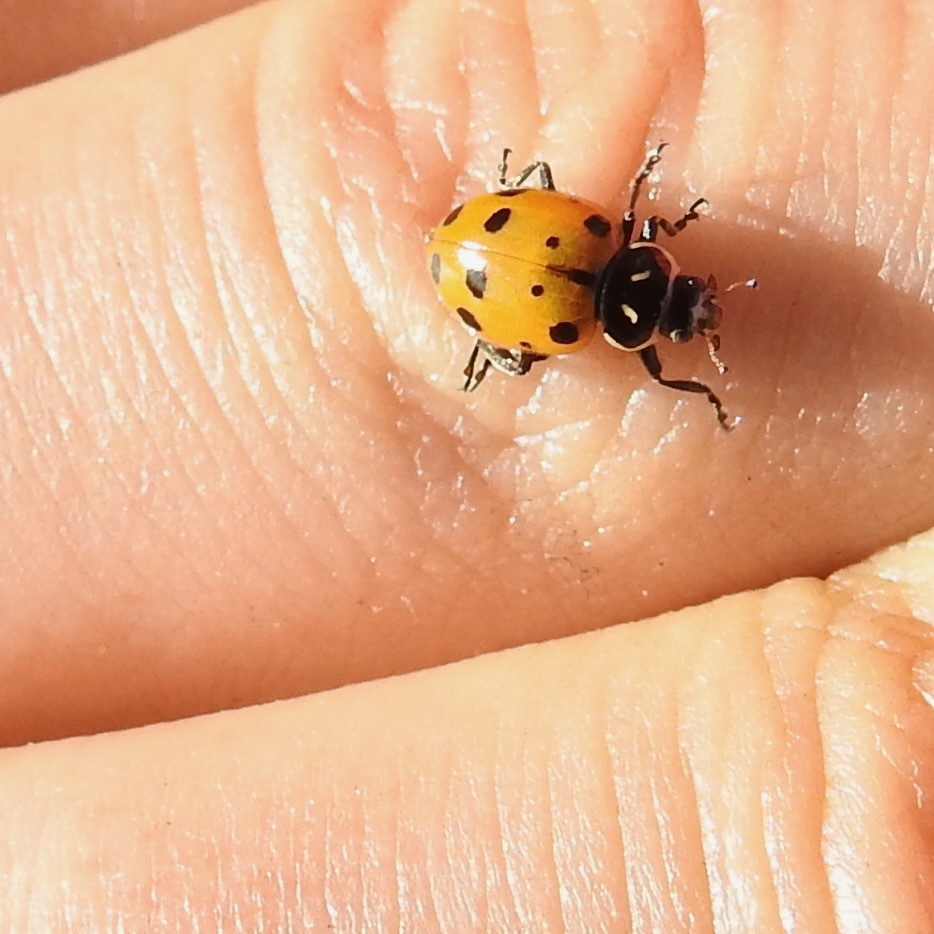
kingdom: Animalia
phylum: Arthropoda
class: Insecta
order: Coleoptera
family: Coccinellidae
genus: Hippodamia
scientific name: Hippodamia convergens
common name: Convergent lady beetle
